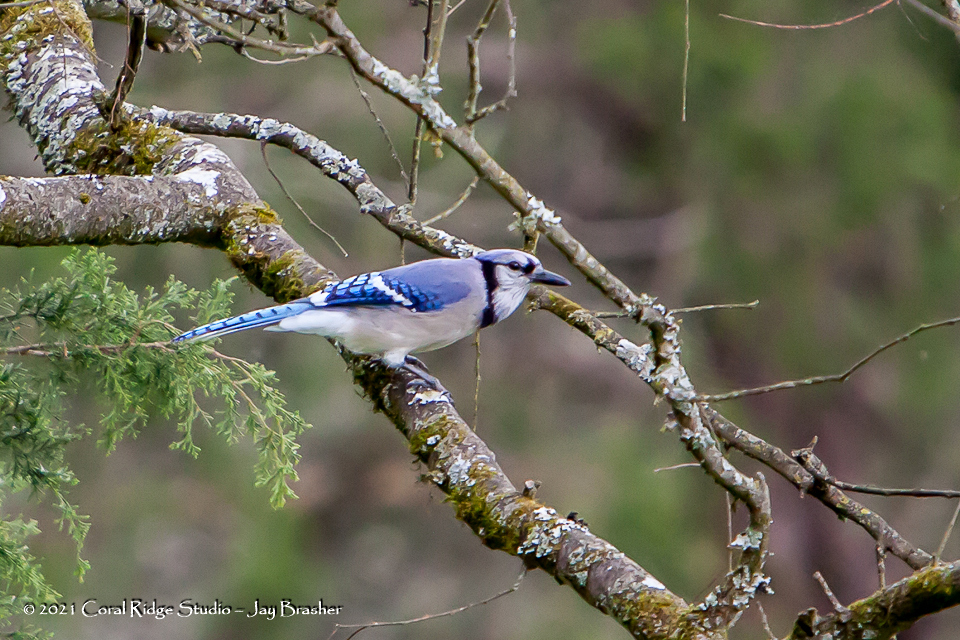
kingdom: Animalia
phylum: Chordata
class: Aves
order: Passeriformes
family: Corvidae
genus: Cyanocitta
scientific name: Cyanocitta cristata
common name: Blue jay
